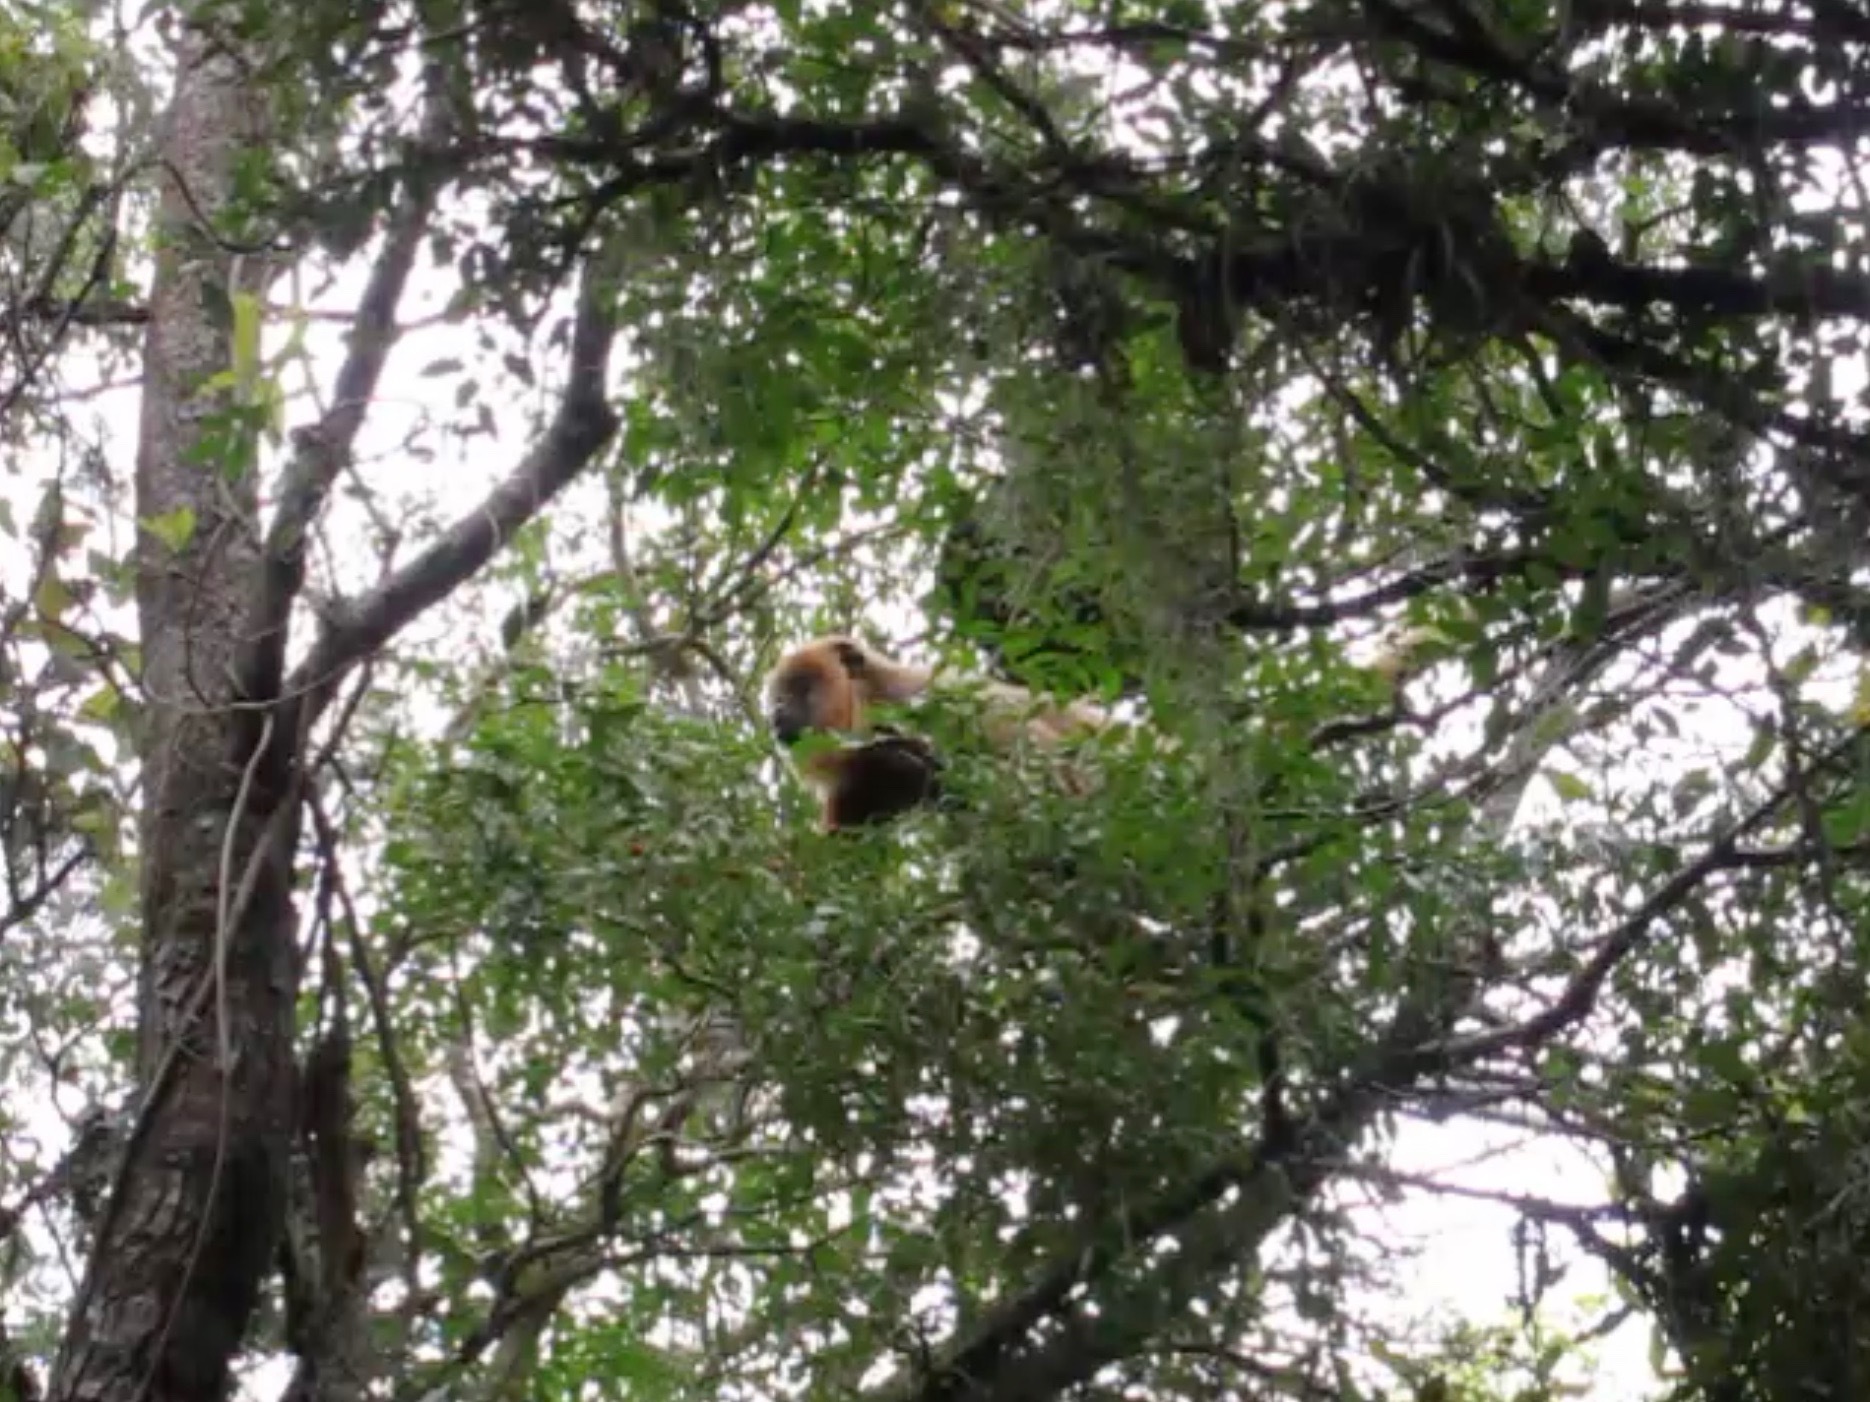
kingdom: Animalia
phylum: Chordata
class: Mammalia
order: Primates
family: Atelidae
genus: Alouatta
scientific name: Alouatta caraya
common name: Black howler
